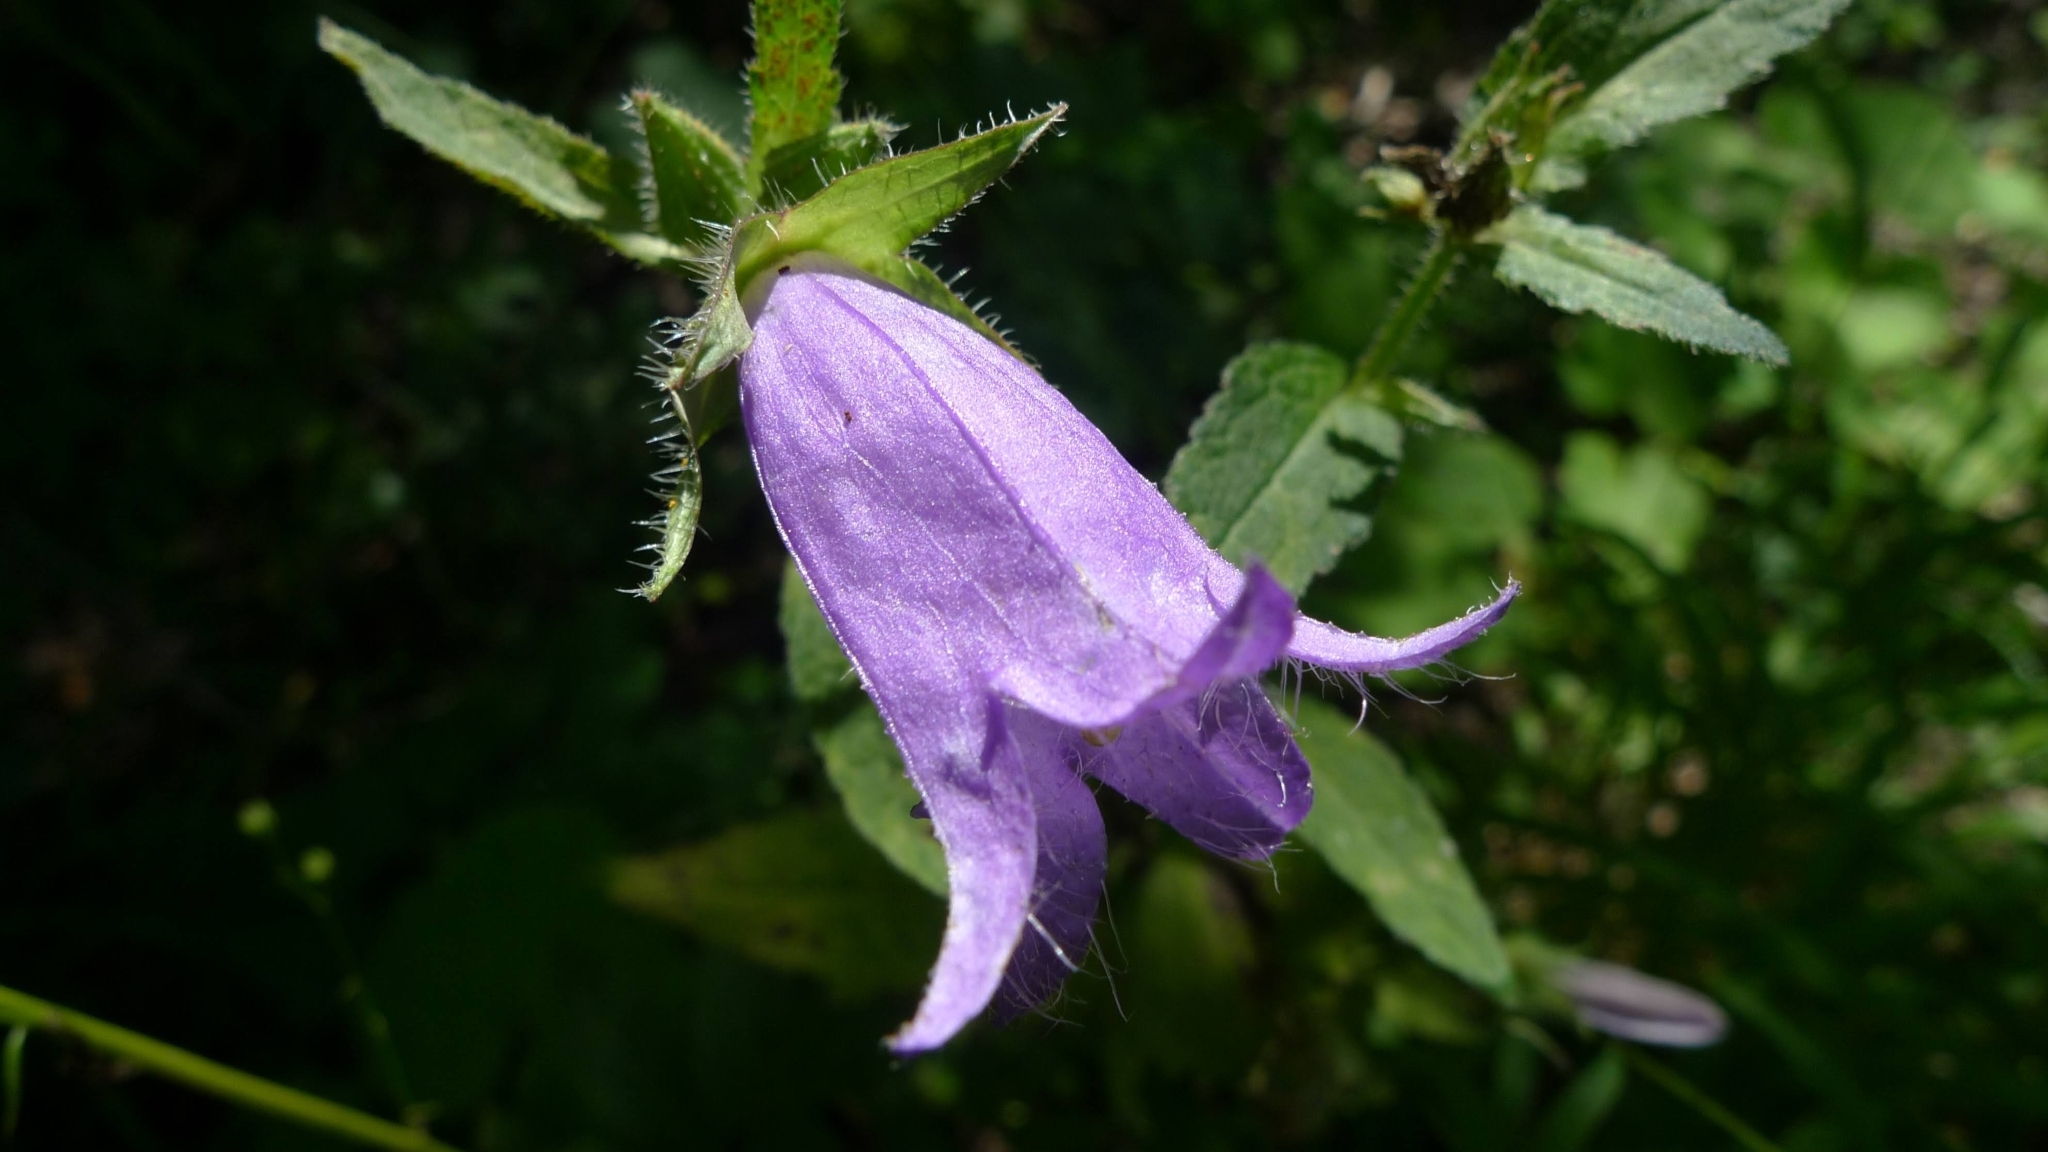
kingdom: Plantae
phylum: Tracheophyta
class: Magnoliopsida
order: Asterales
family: Campanulaceae
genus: Campanula
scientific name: Campanula trachelium
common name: Nettle-leaved bellflower
